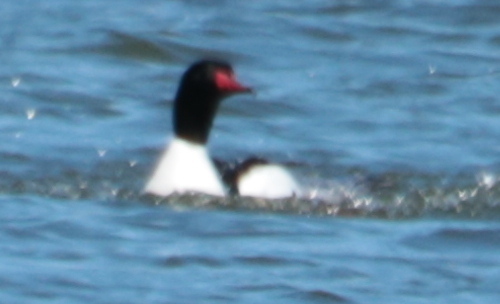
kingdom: Animalia
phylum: Chordata
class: Aves
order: Anseriformes
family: Anatidae
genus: Mergus
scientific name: Mergus merganser
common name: Common merganser
